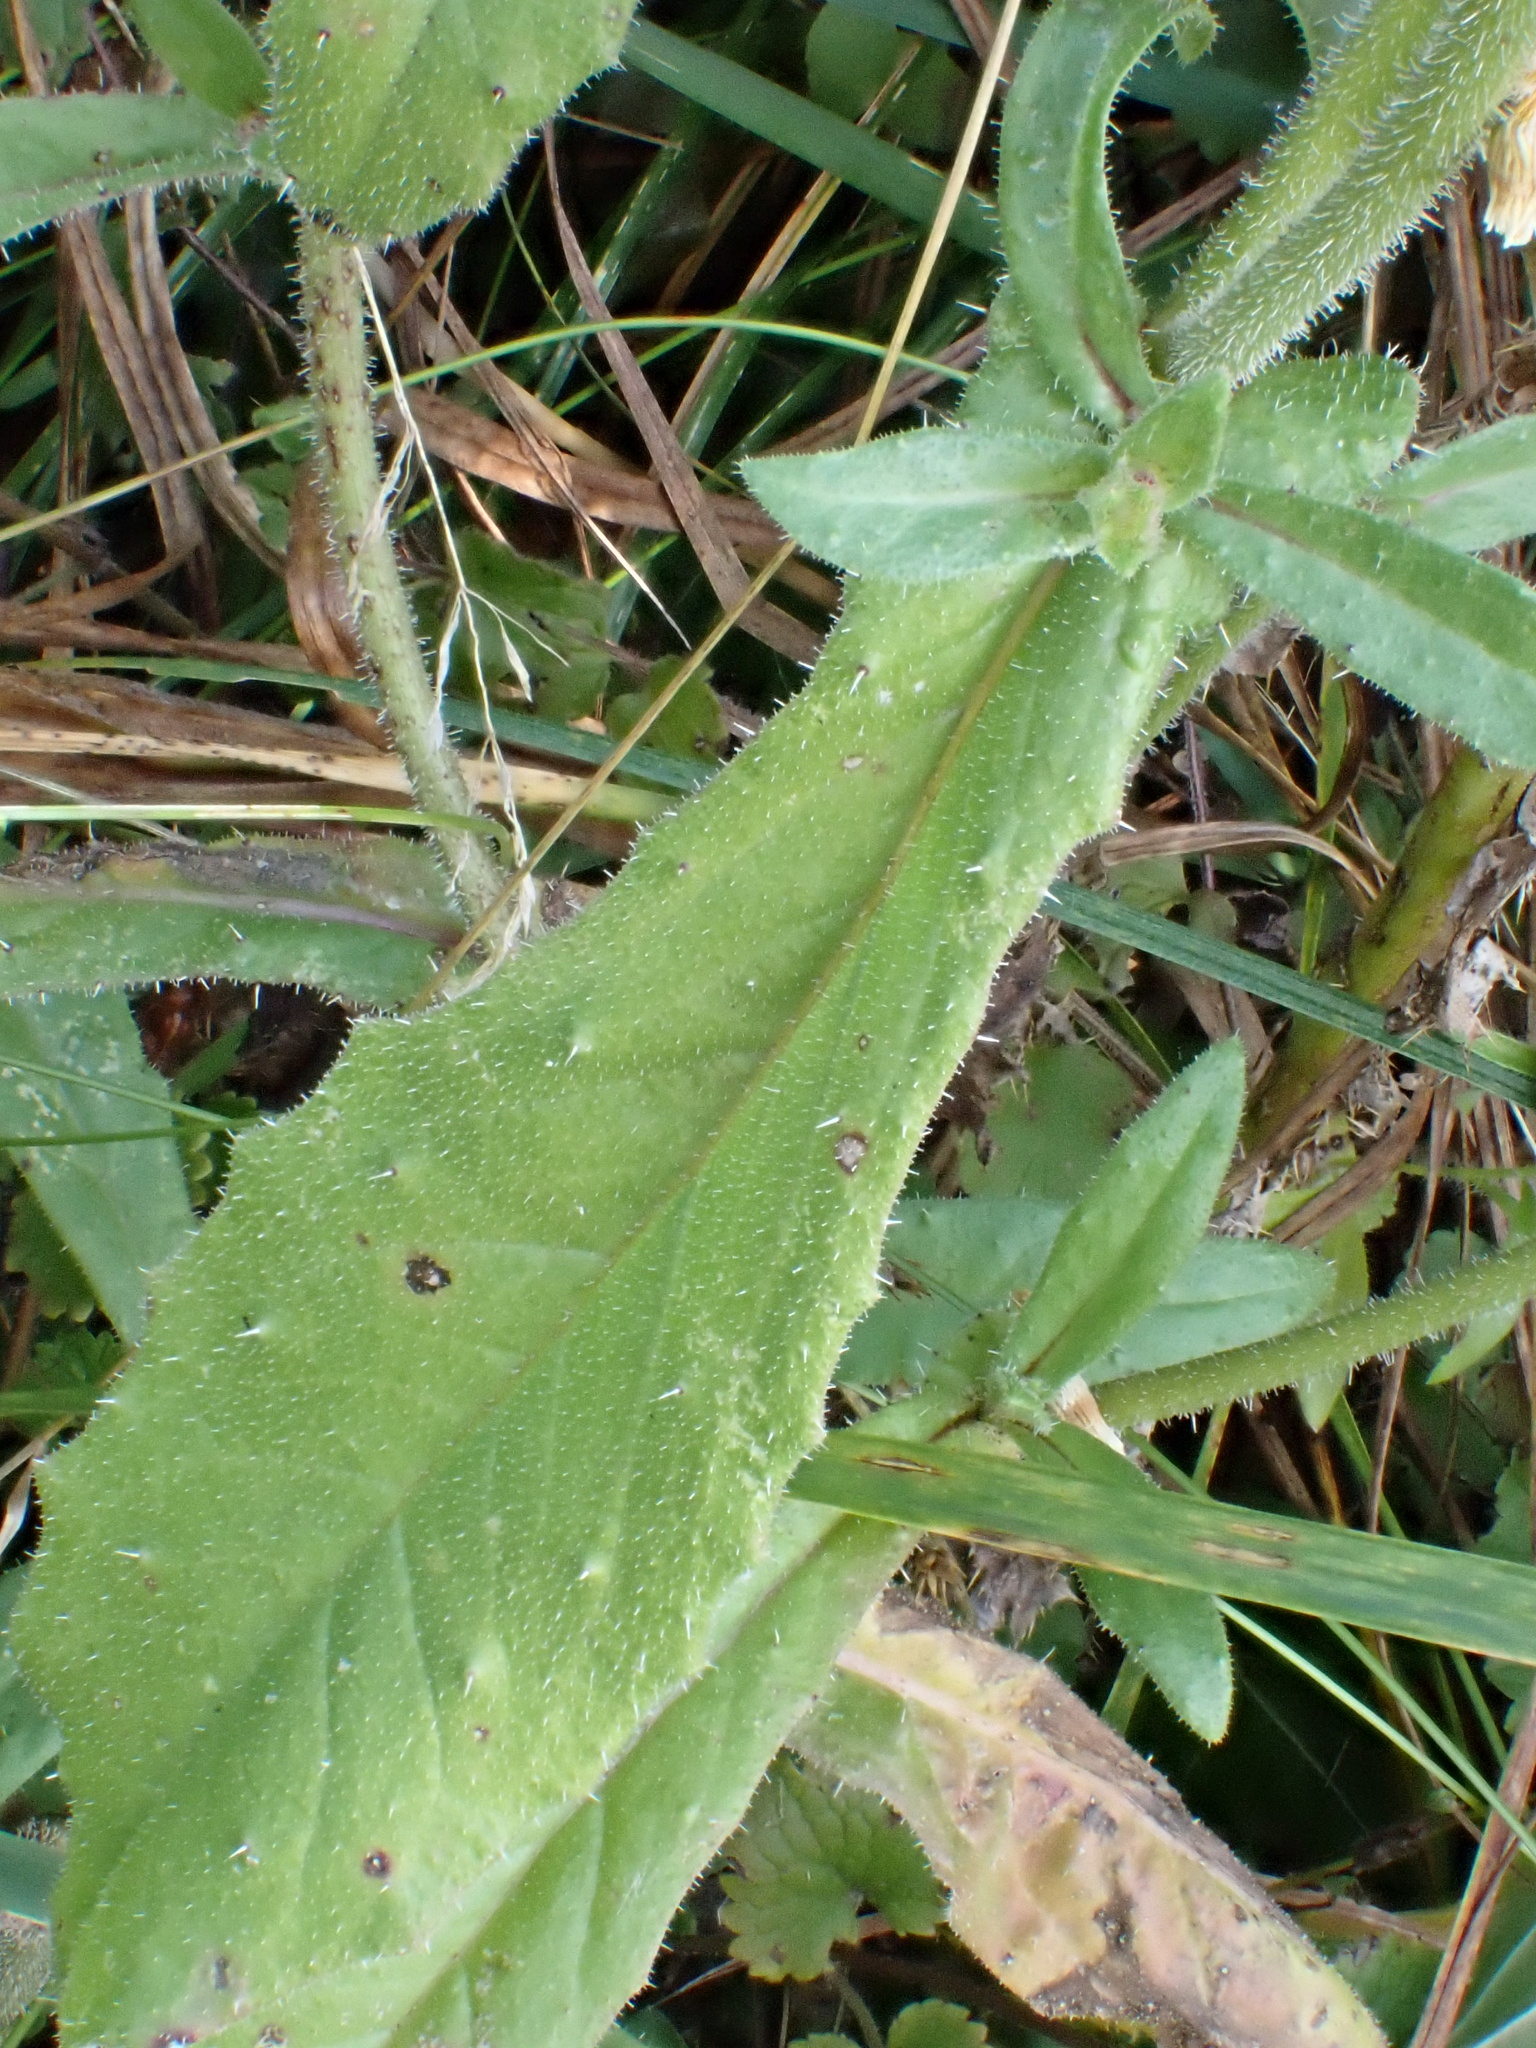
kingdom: Plantae
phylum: Tracheophyta
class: Magnoliopsida
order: Asterales
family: Asteraceae
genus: Helminthotheca
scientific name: Helminthotheca echioides
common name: Ox-tongue
